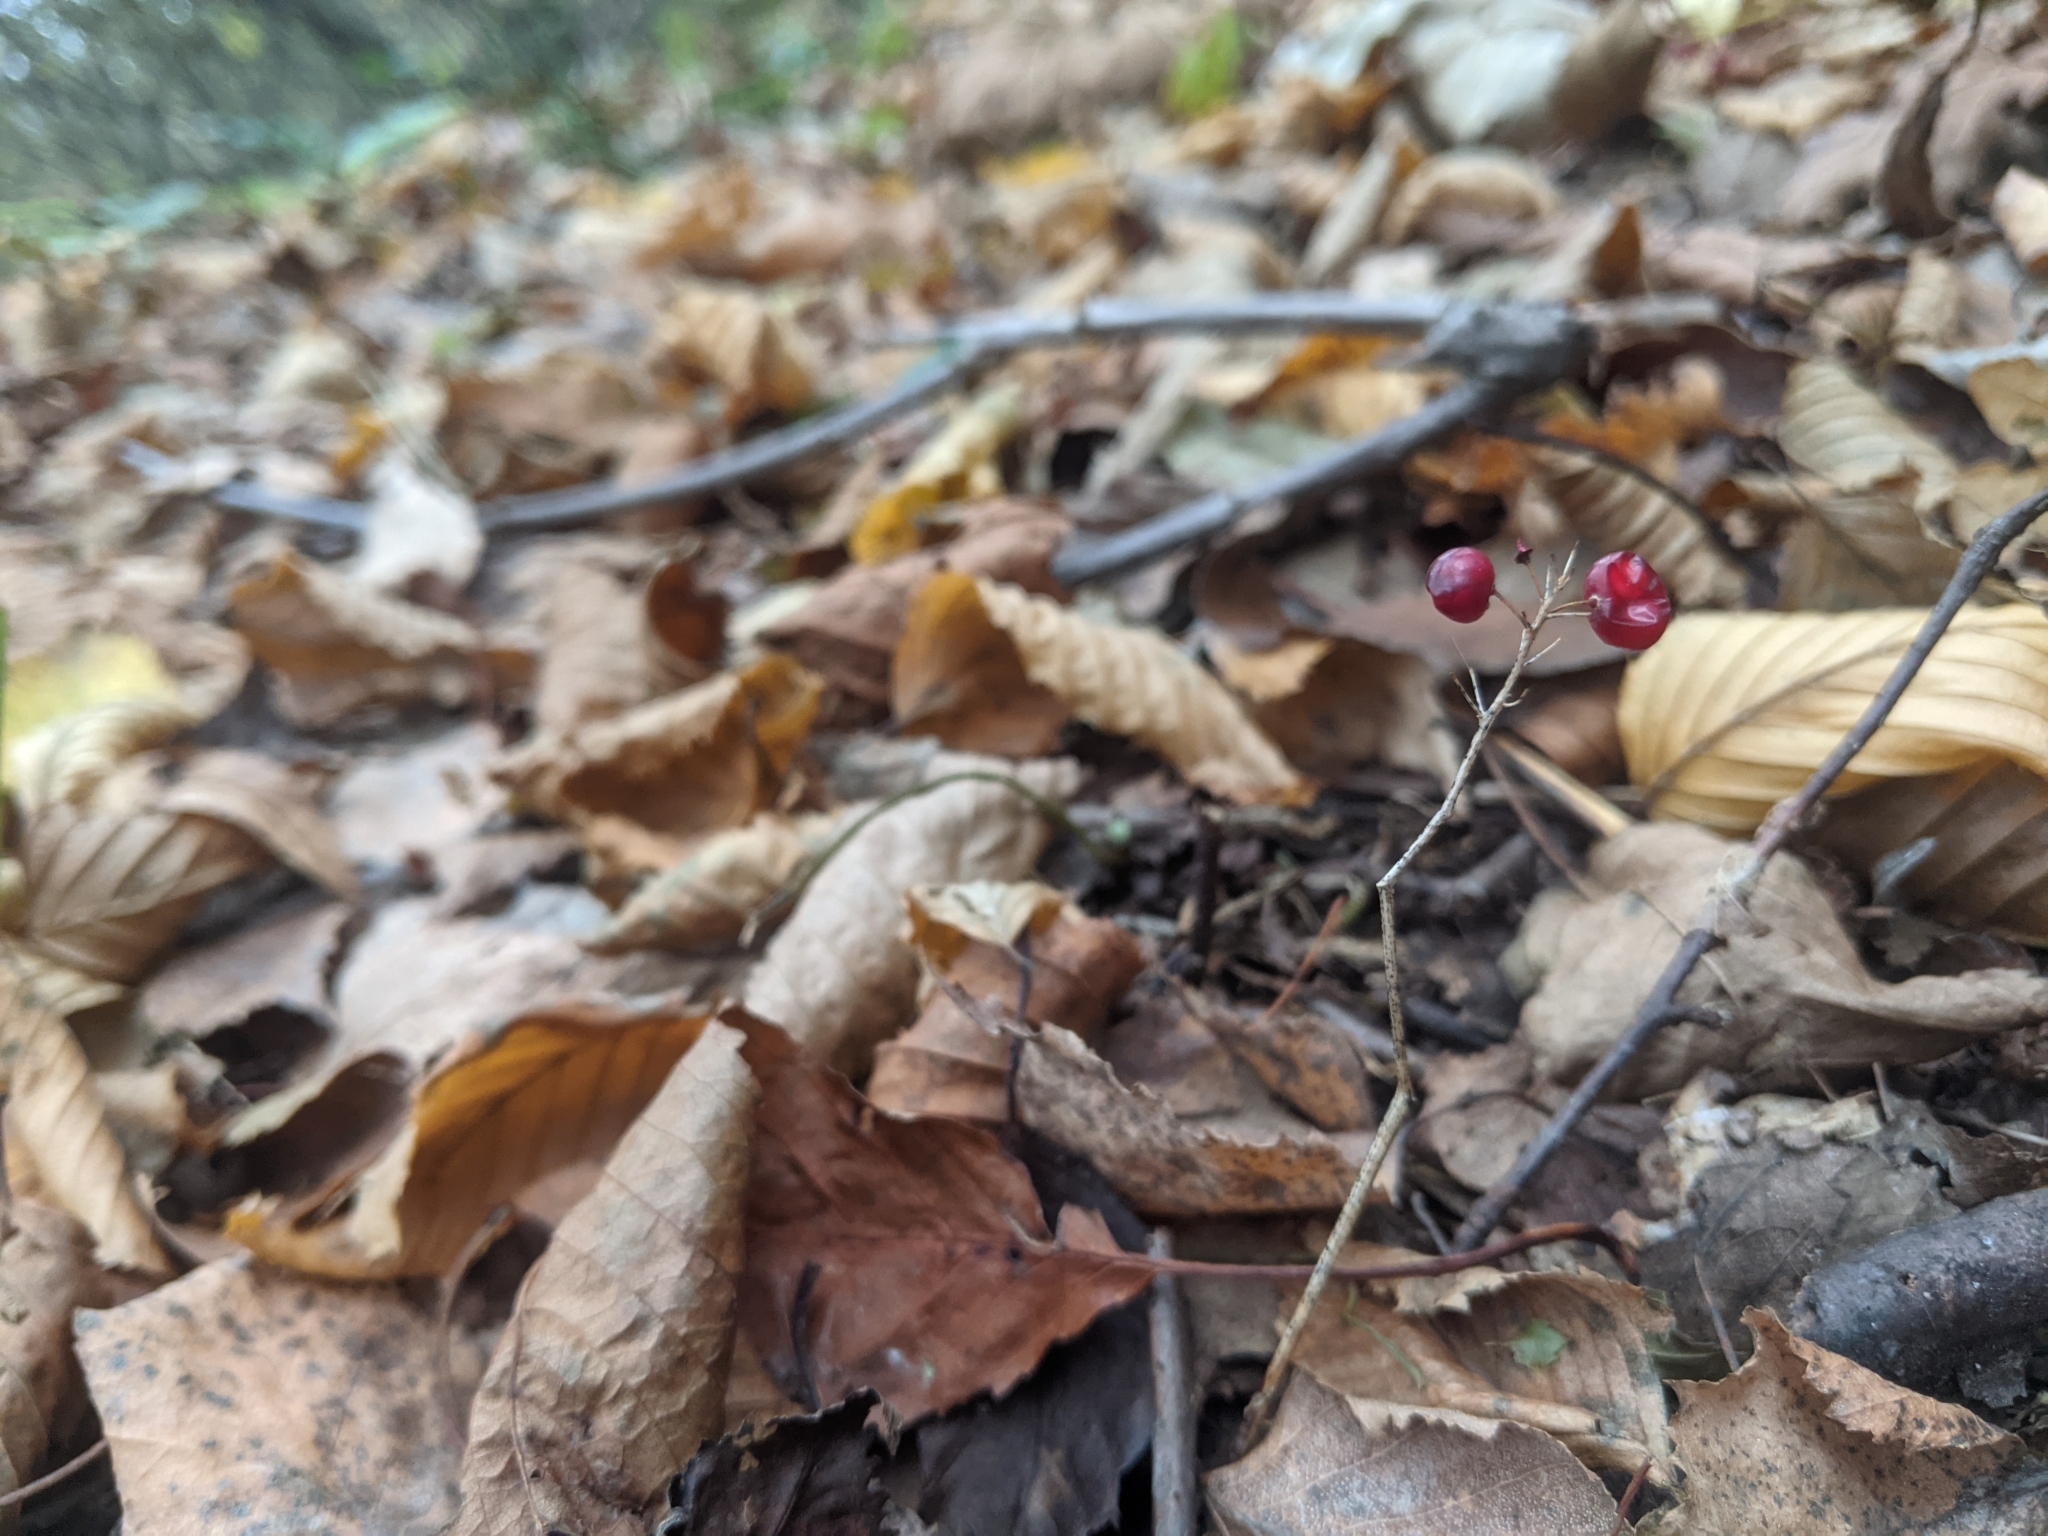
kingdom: Plantae
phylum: Tracheophyta
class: Liliopsida
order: Asparagales
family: Asparagaceae
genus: Maianthemum
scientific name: Maianthemum bifolium
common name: May lily
